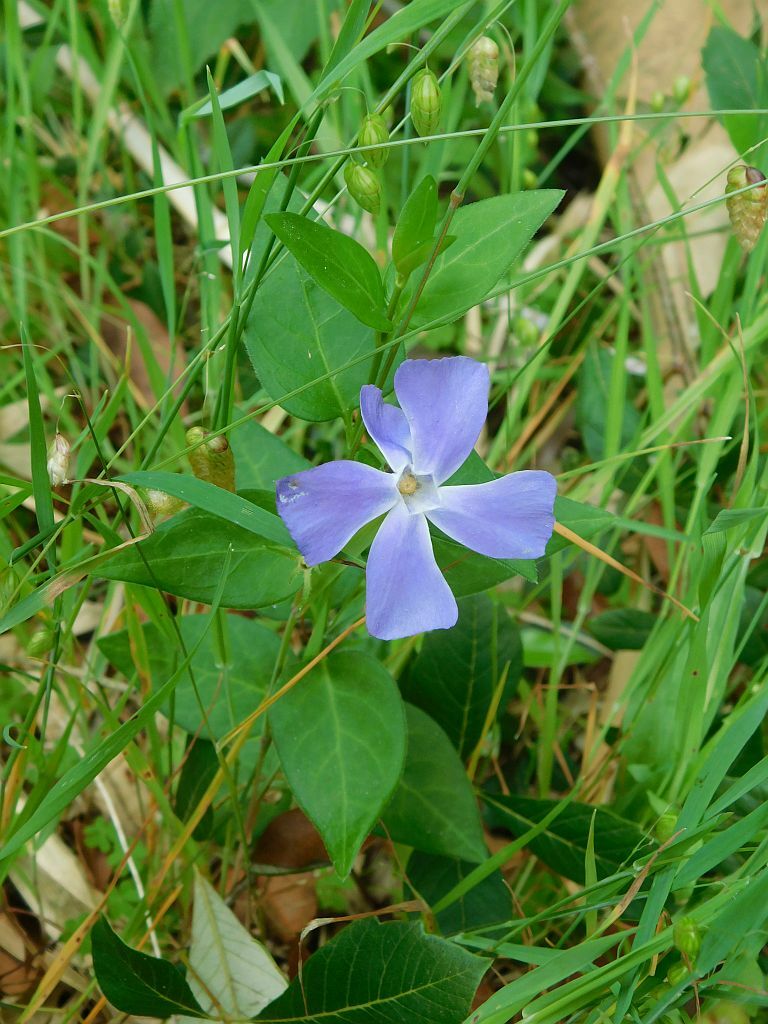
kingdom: Plantae
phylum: Tracheophyta
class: Magnoliopsida
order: Gentianales
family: Apocynaceae
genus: Vinca
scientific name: Vinca major
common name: Greater periwinkle
